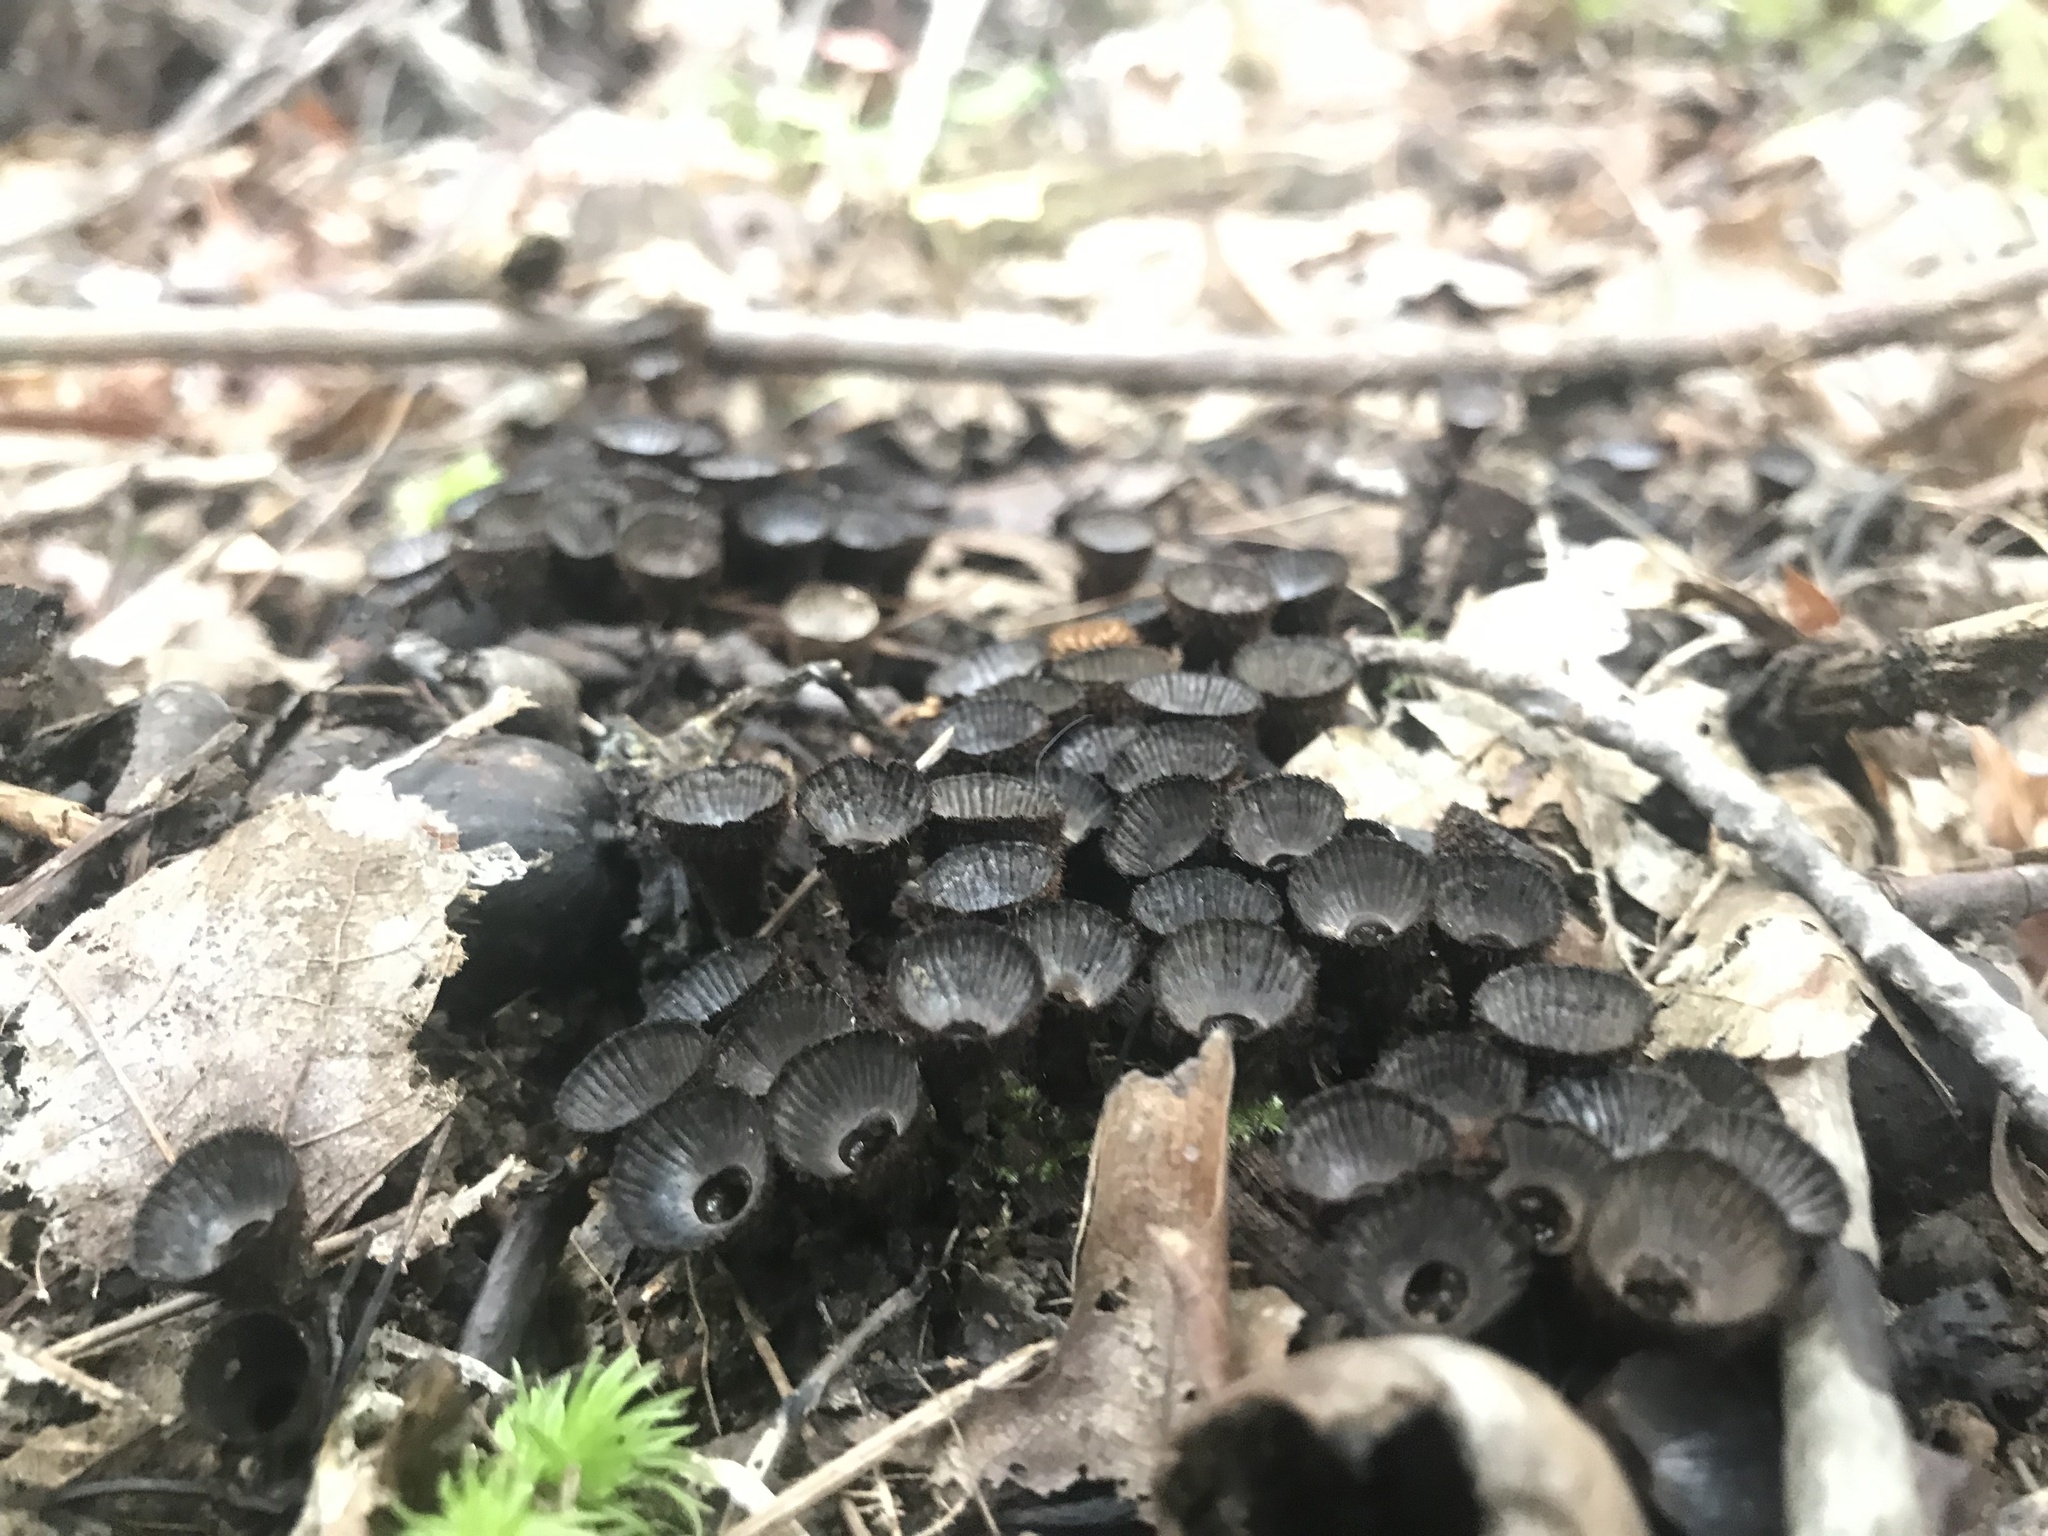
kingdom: Fungi
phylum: Basidiomycota
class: Agaricomycetes
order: Agaricales
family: Agaricaceae
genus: Cyathus
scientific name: Cyathus striatus
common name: Fluted bird's nest
